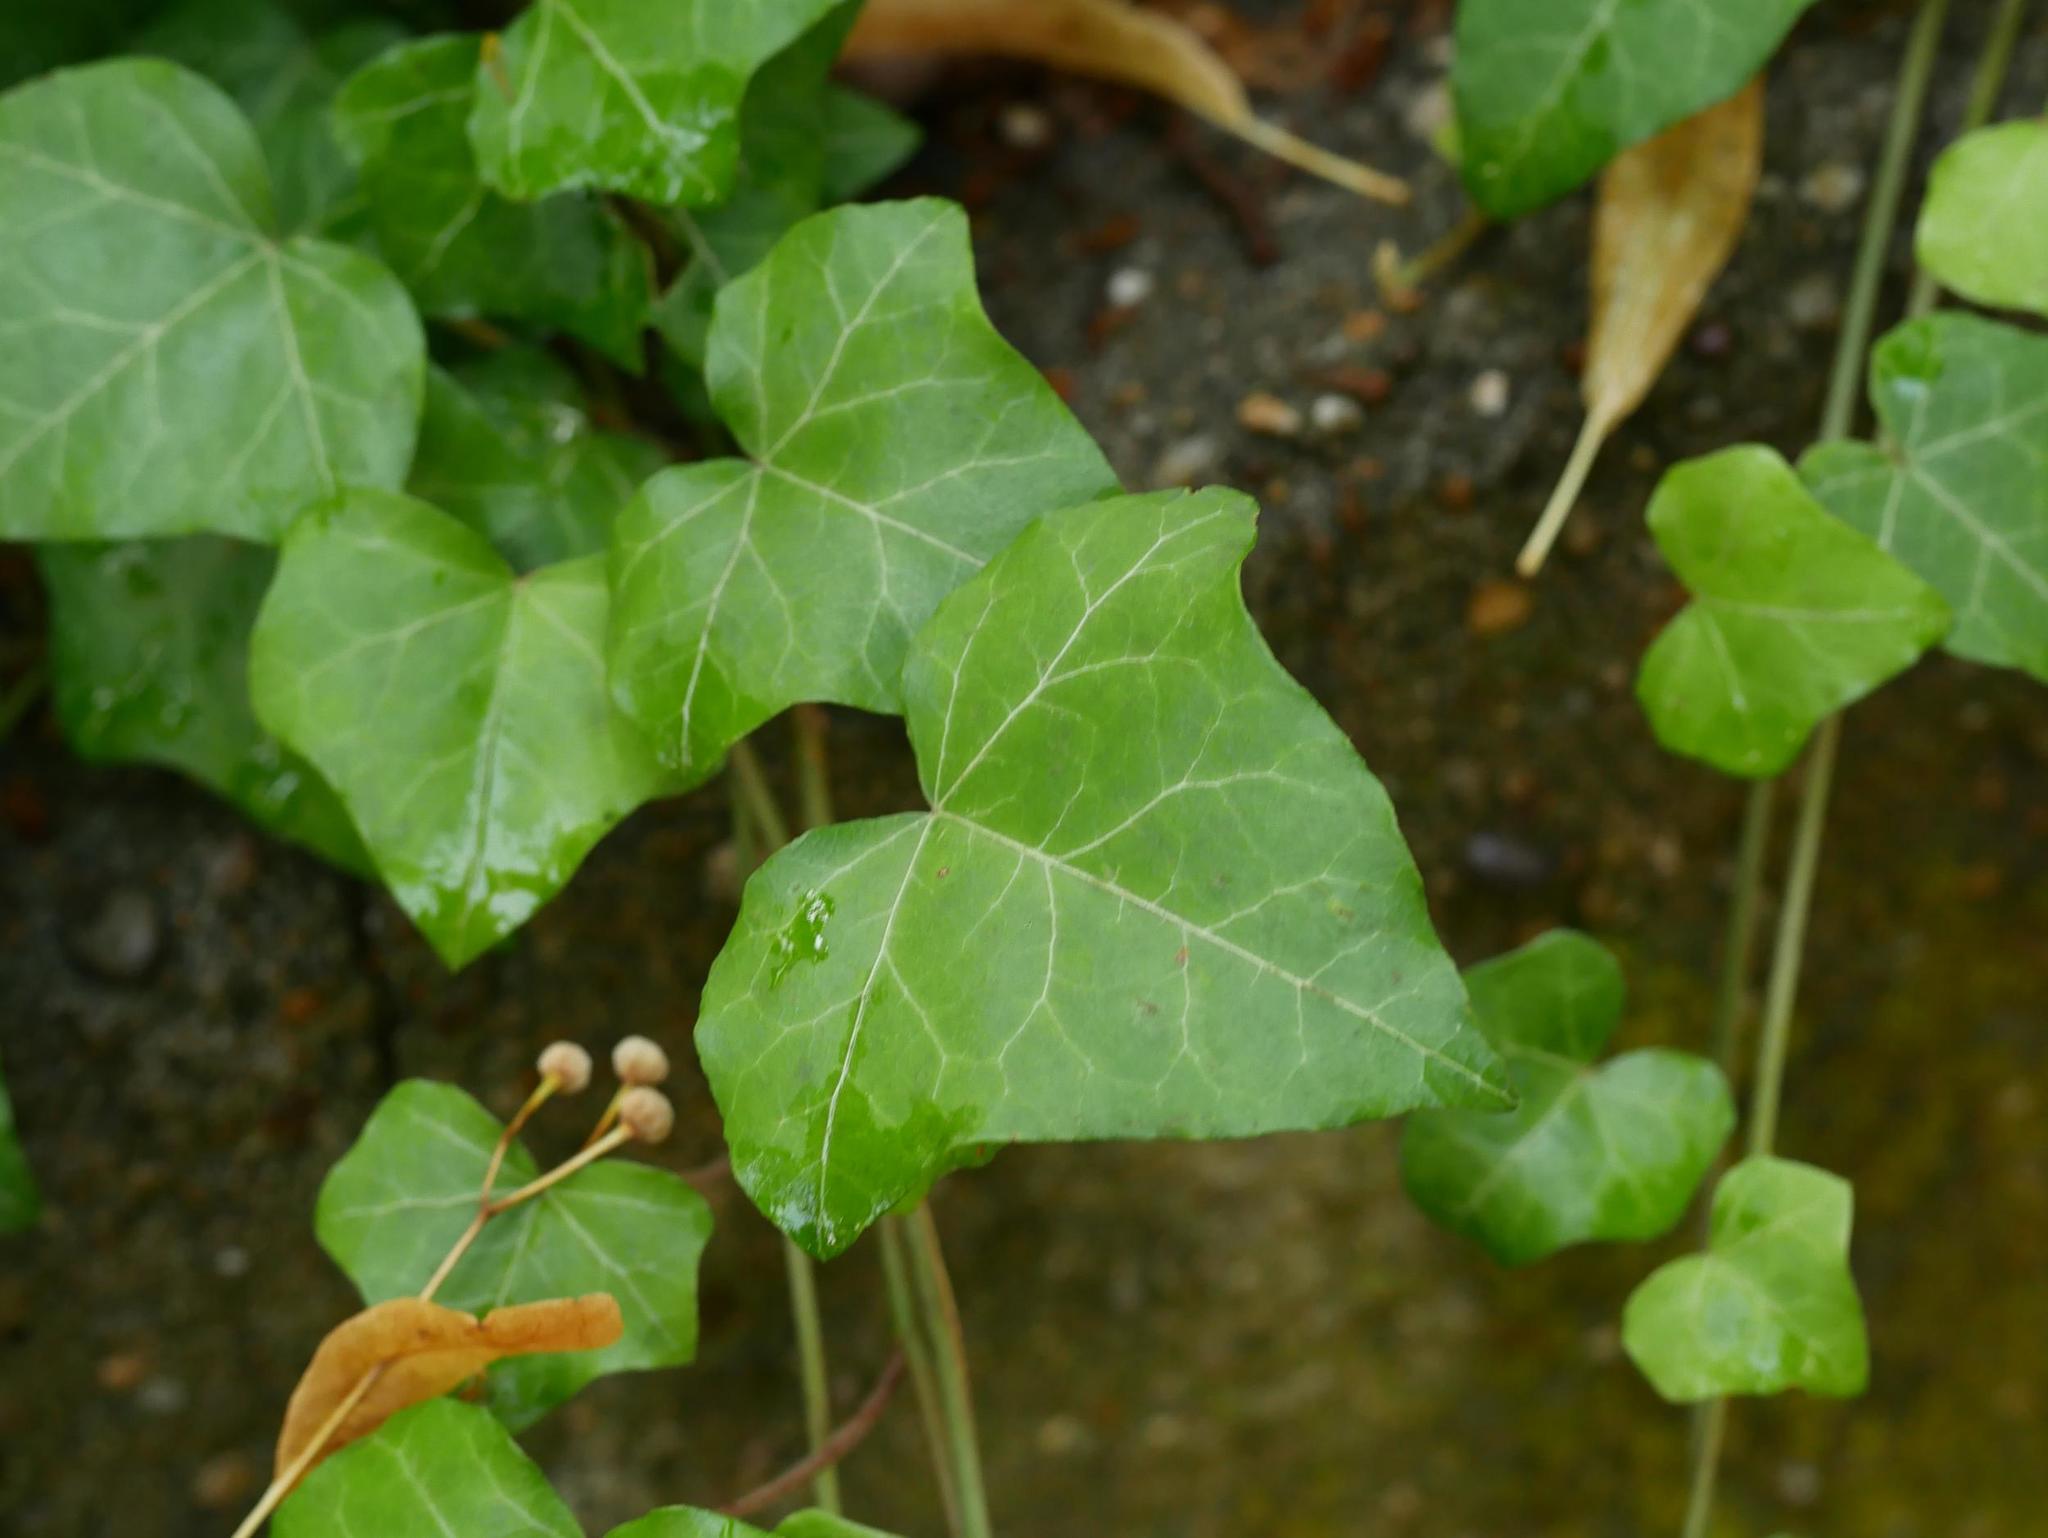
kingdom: Plantae
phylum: Tracheophyta
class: Magnoliopsida
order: Apiales
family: Araliaceae
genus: Hedera
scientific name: Hedera helix
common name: Ivy
